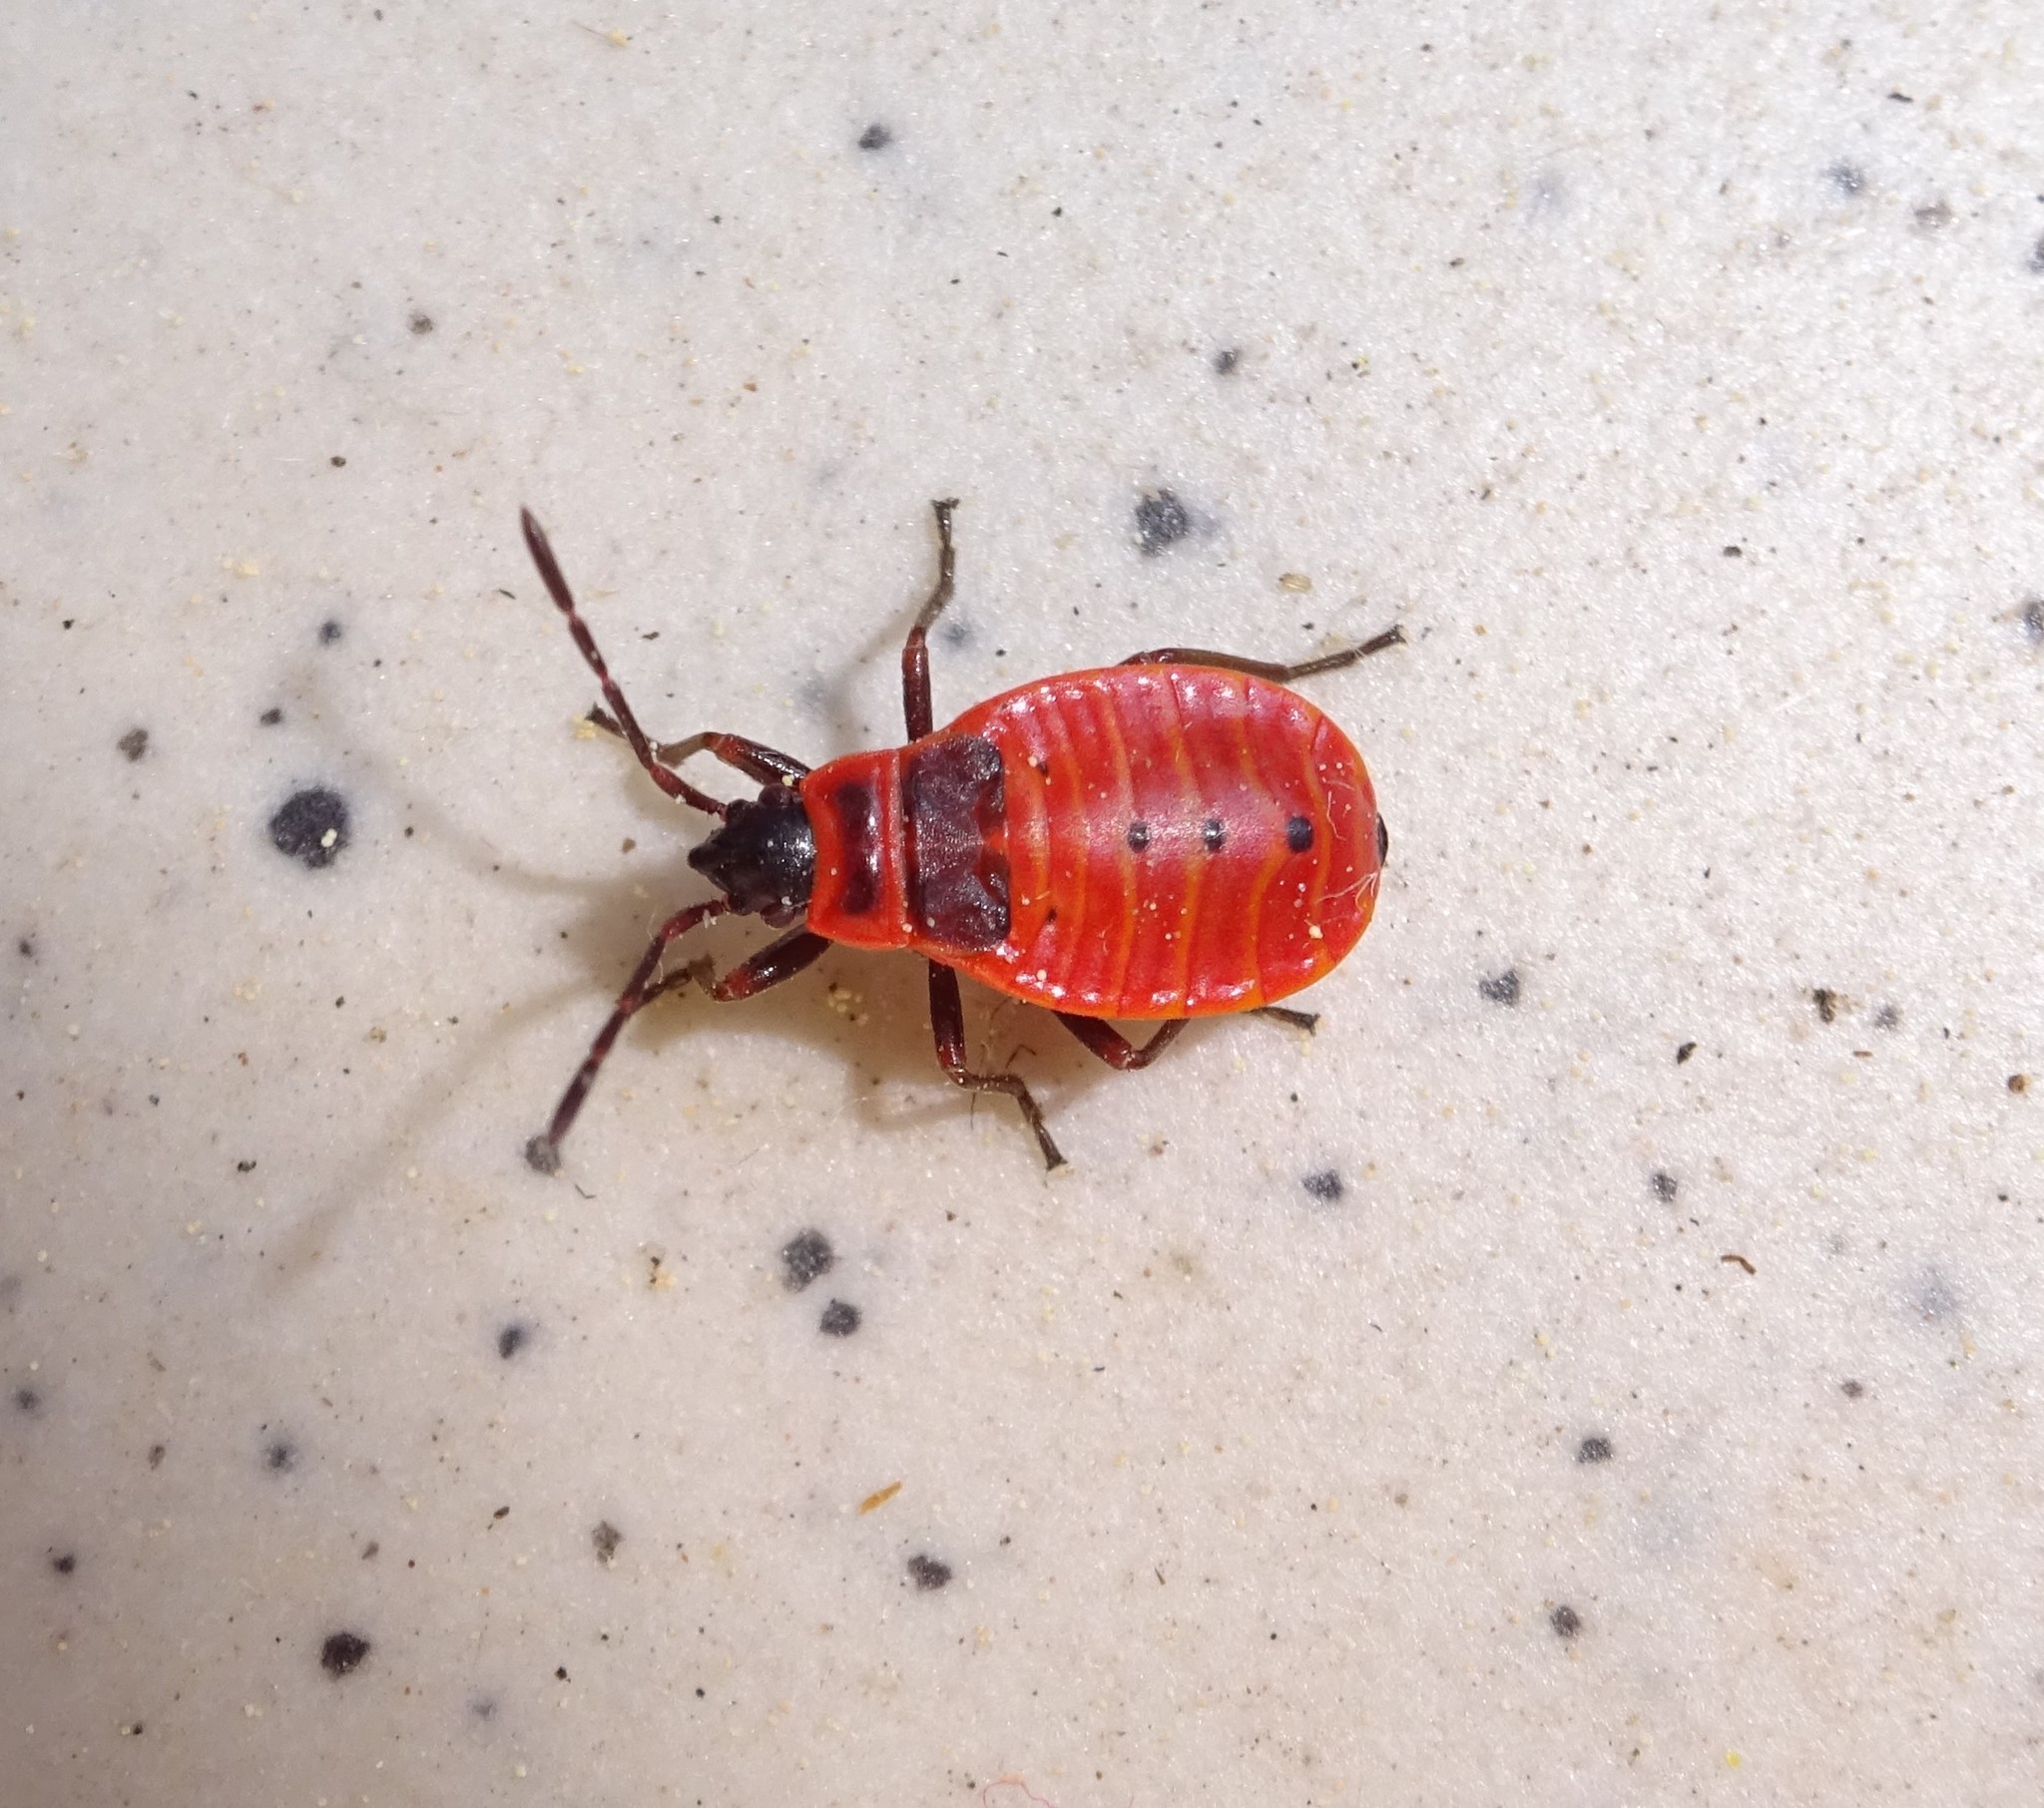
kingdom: Animalia
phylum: Arthropoda
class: Insecta
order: Hemiptera
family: Pyrrhocoridae
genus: Pyrrhocoris
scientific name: Pyrrhocoris apterus
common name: Firebug
